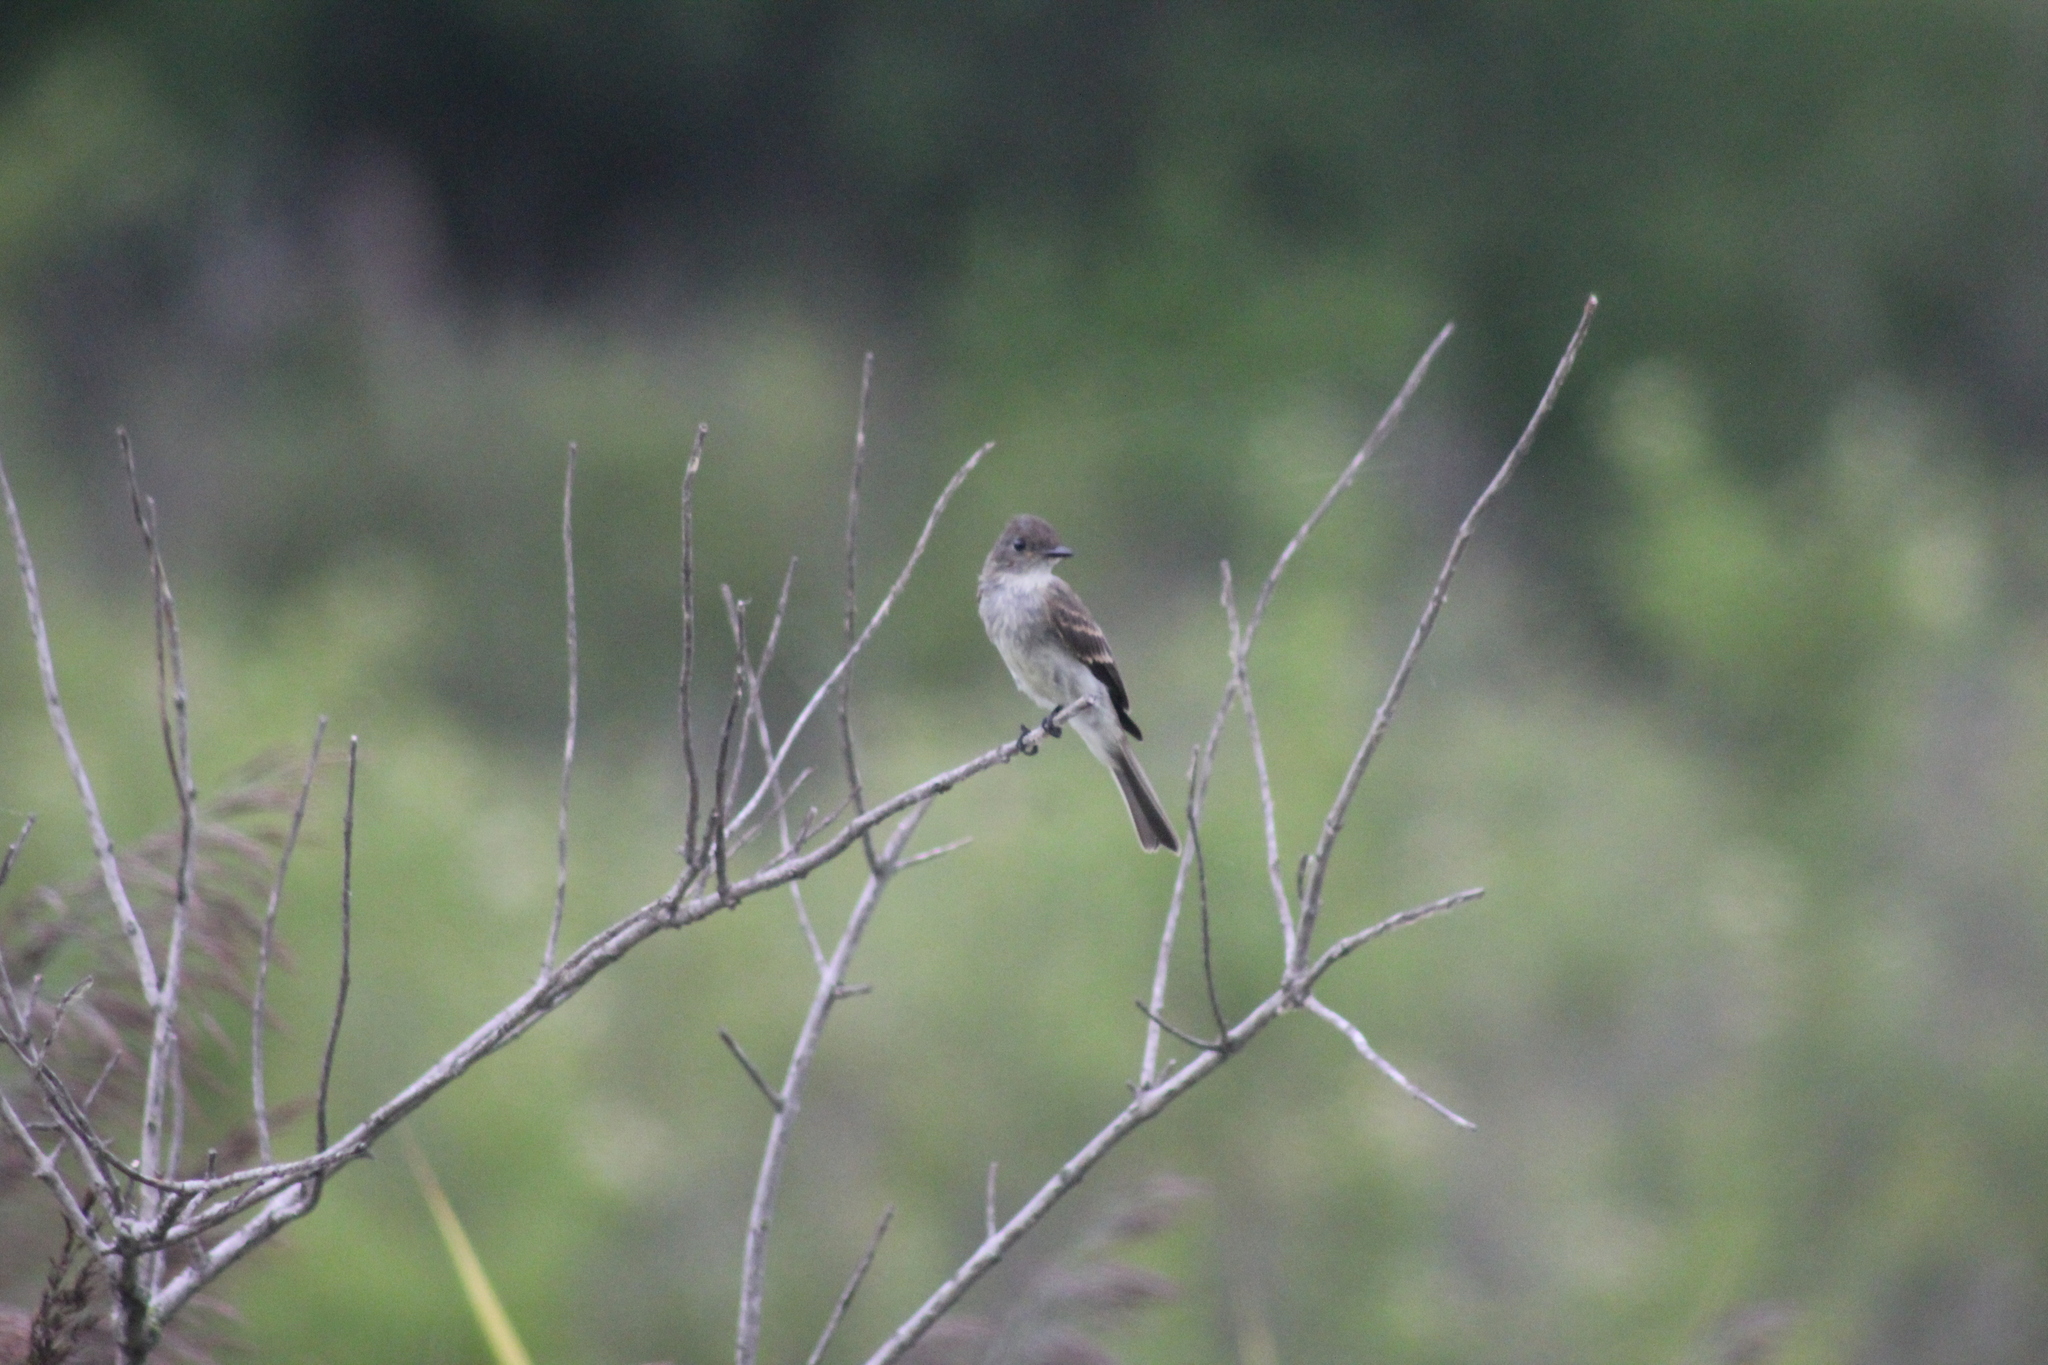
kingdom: Animalia
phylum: Chordata
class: Aves
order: Passeriformes
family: Tyrannidae
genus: Sayornis
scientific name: Sayornis phoebe
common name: Eastern phoebe
